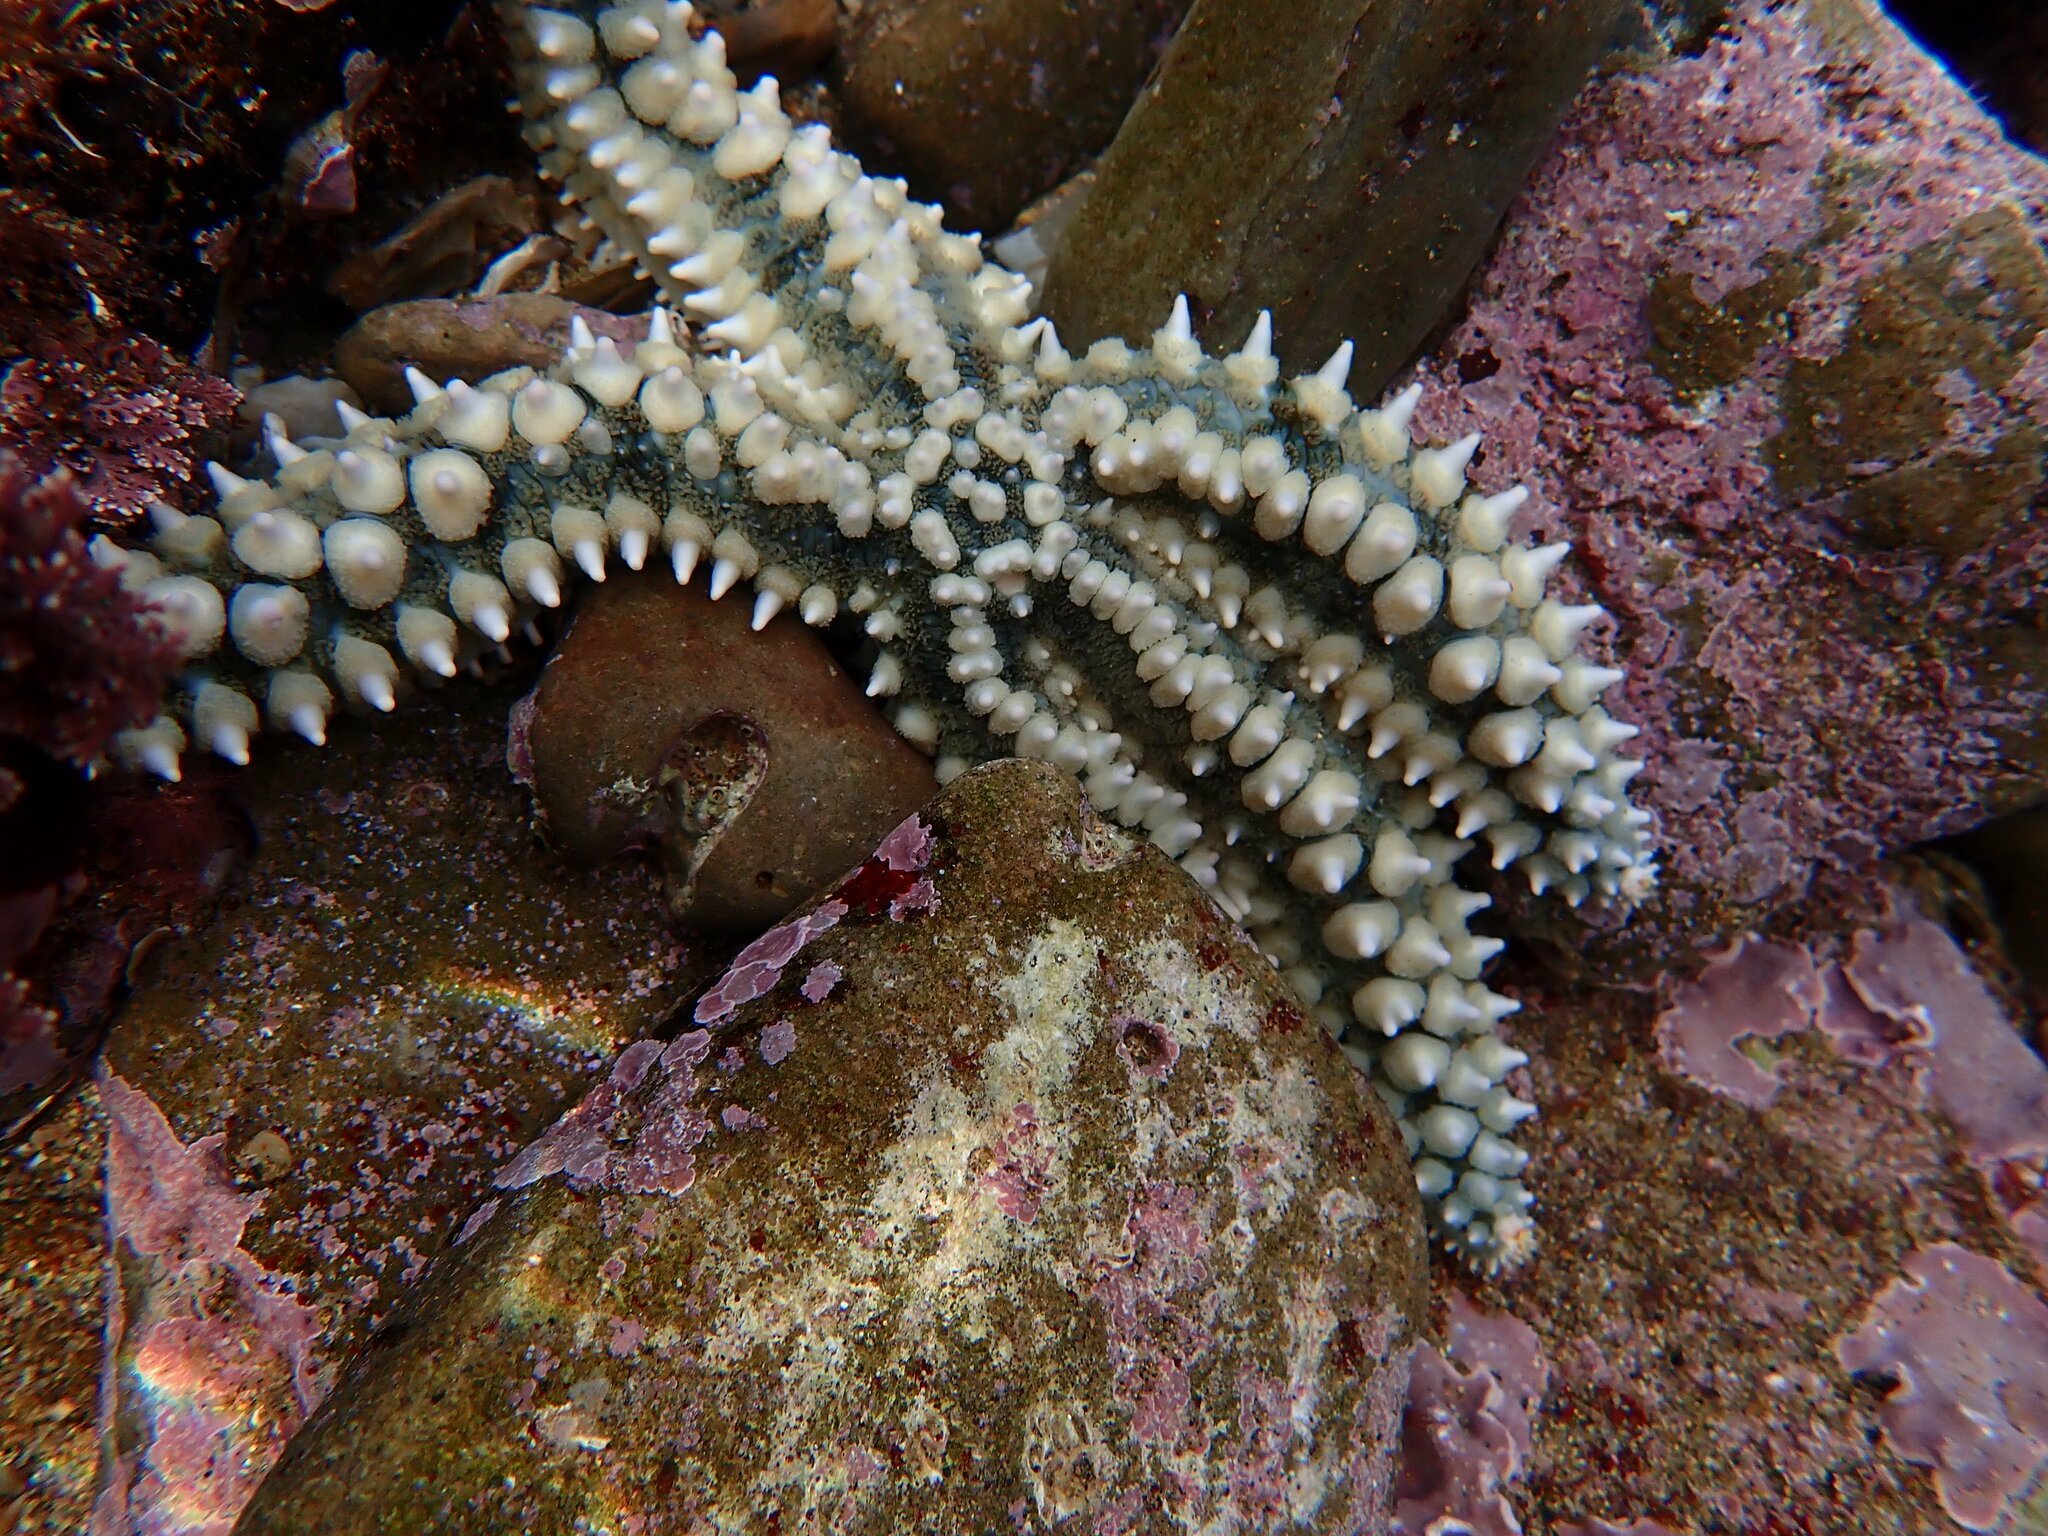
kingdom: Animalia
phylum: Echinodermata
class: Asteroidea
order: Forcipulatida
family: Asteriidae
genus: Marthasterias
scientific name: Marthasterias glacialis
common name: Spiny starfish
